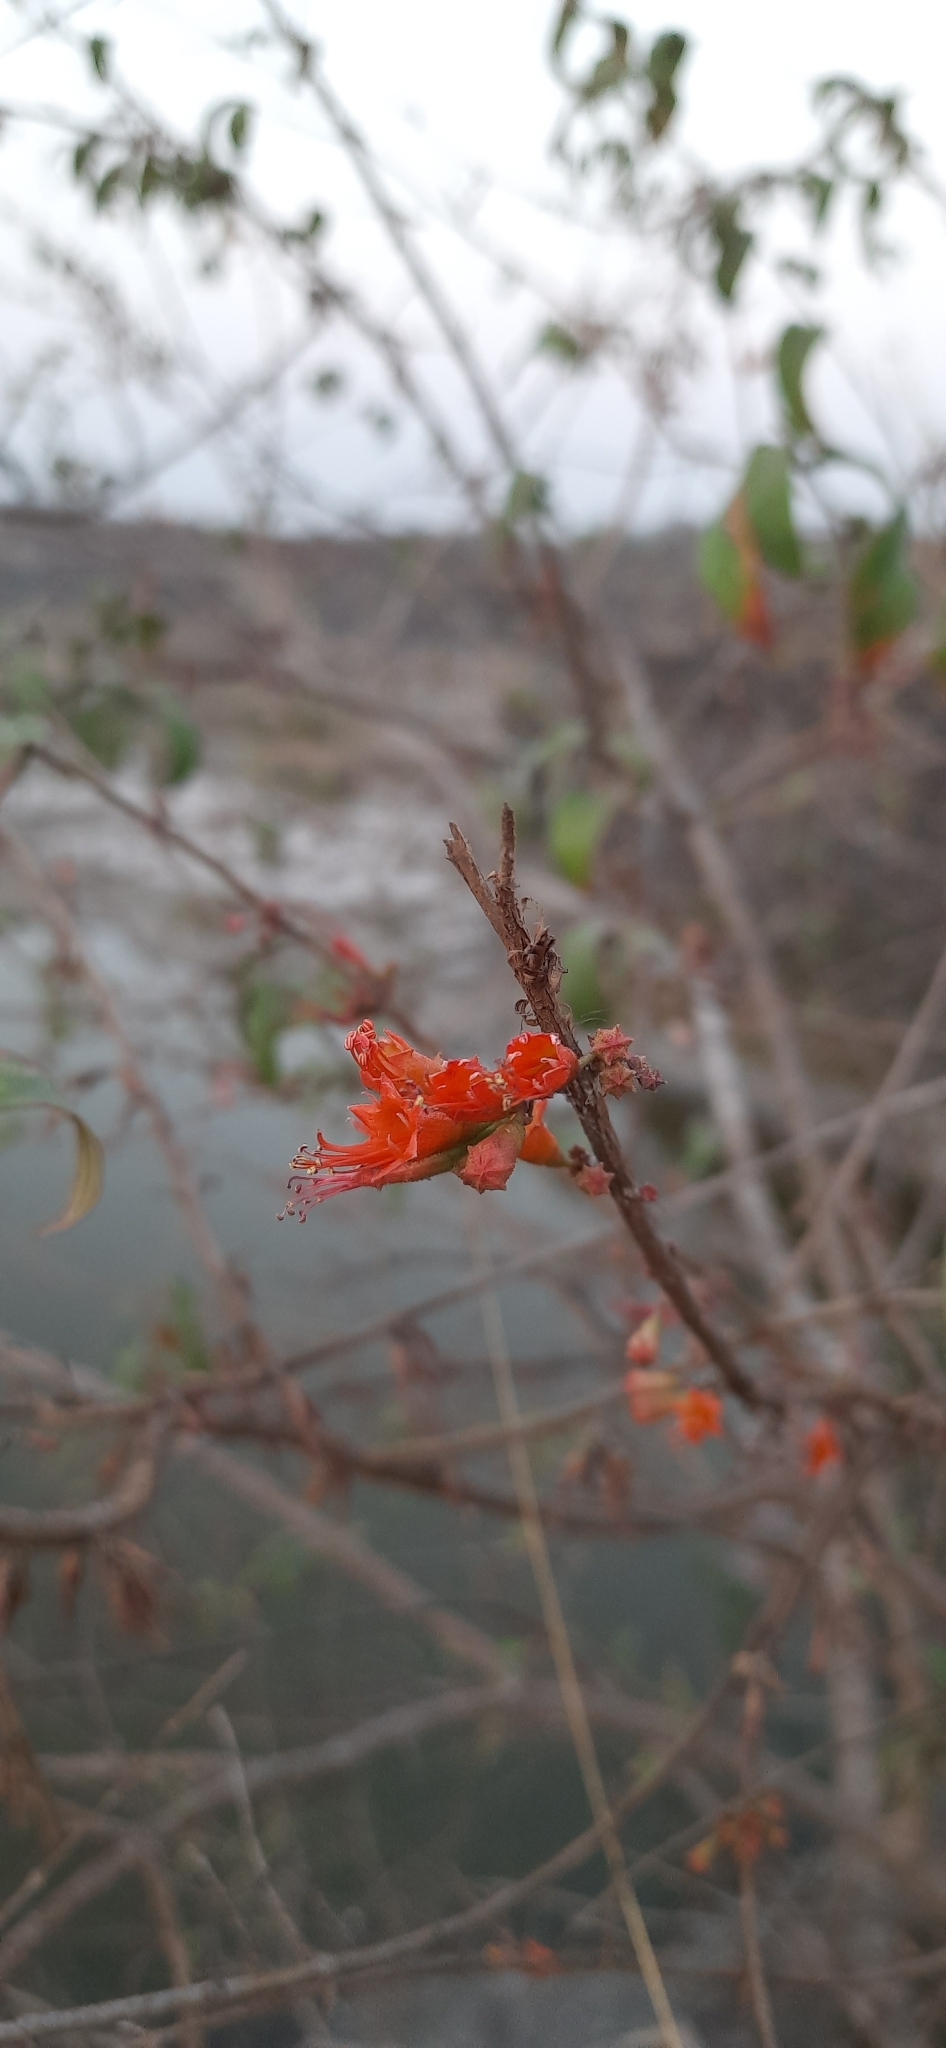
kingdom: Plantae
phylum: Tracheophyta
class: Magnoliopsida
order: Myrtales
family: Lythraceae
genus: Woodfordia
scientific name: Woodfordia fruticosa
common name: Shiranji-tea
